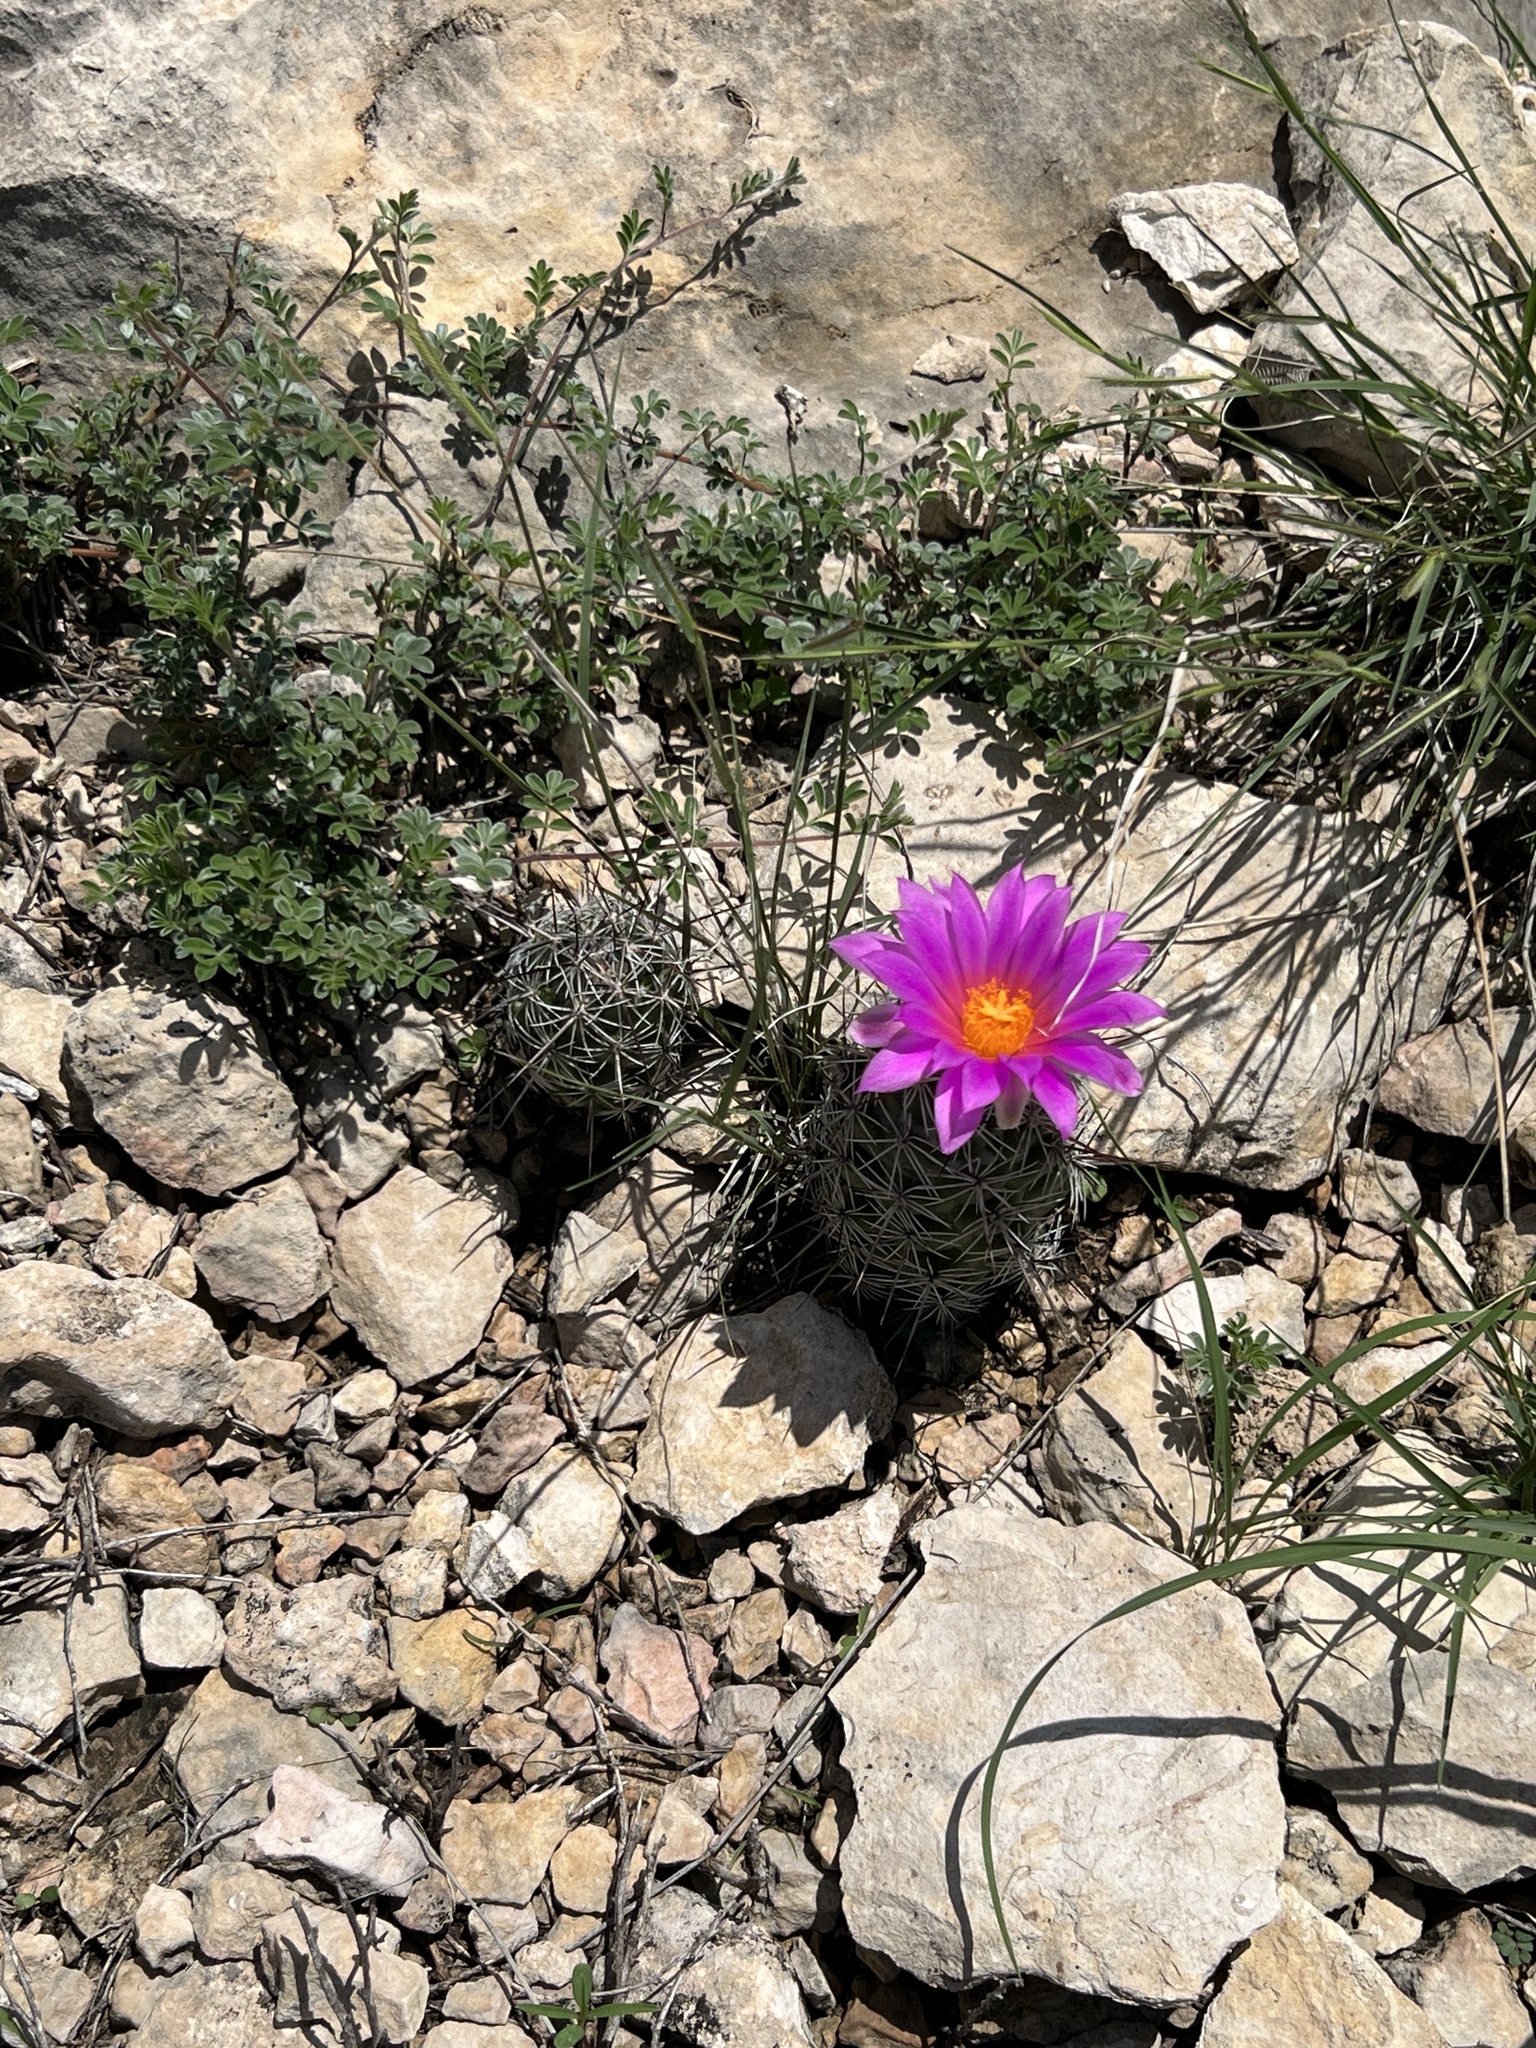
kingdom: Plantae
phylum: Tracheophyta
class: Magnoliopsida
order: Caryophyllales
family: Cactaceae
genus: Cochemiea
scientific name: Cochemiea conoidea
